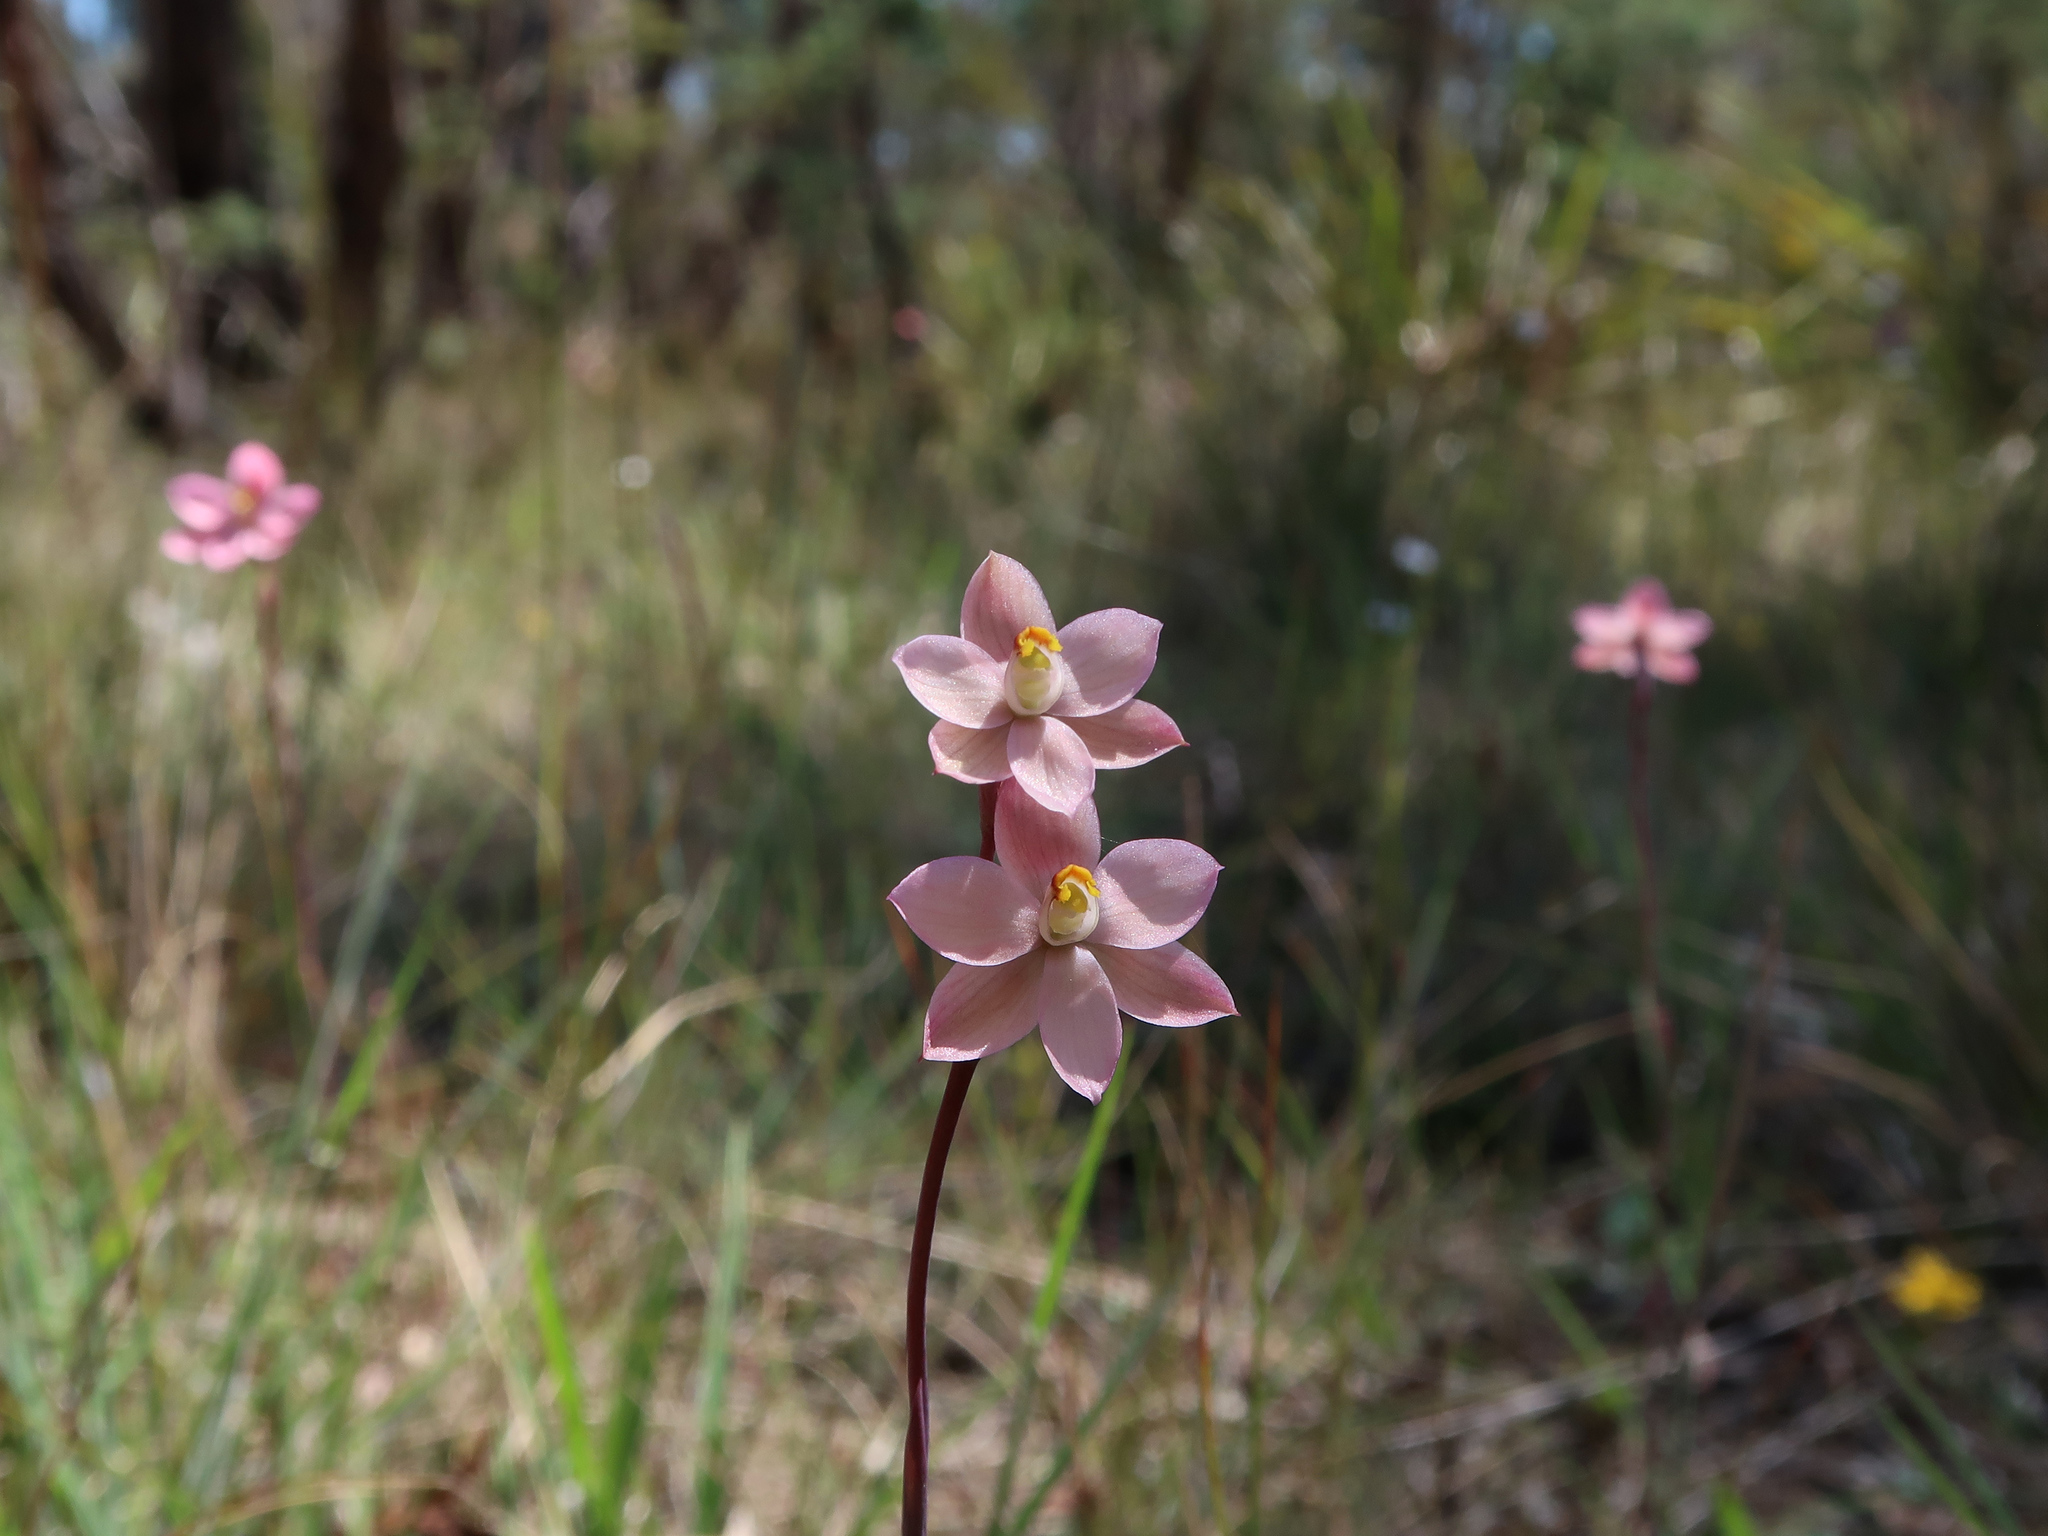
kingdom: Plantae
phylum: Tracheophyta
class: Liliopsida
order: Asparagales
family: Orchidaceae
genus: Thelymitra
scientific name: Thelymitra rubra
